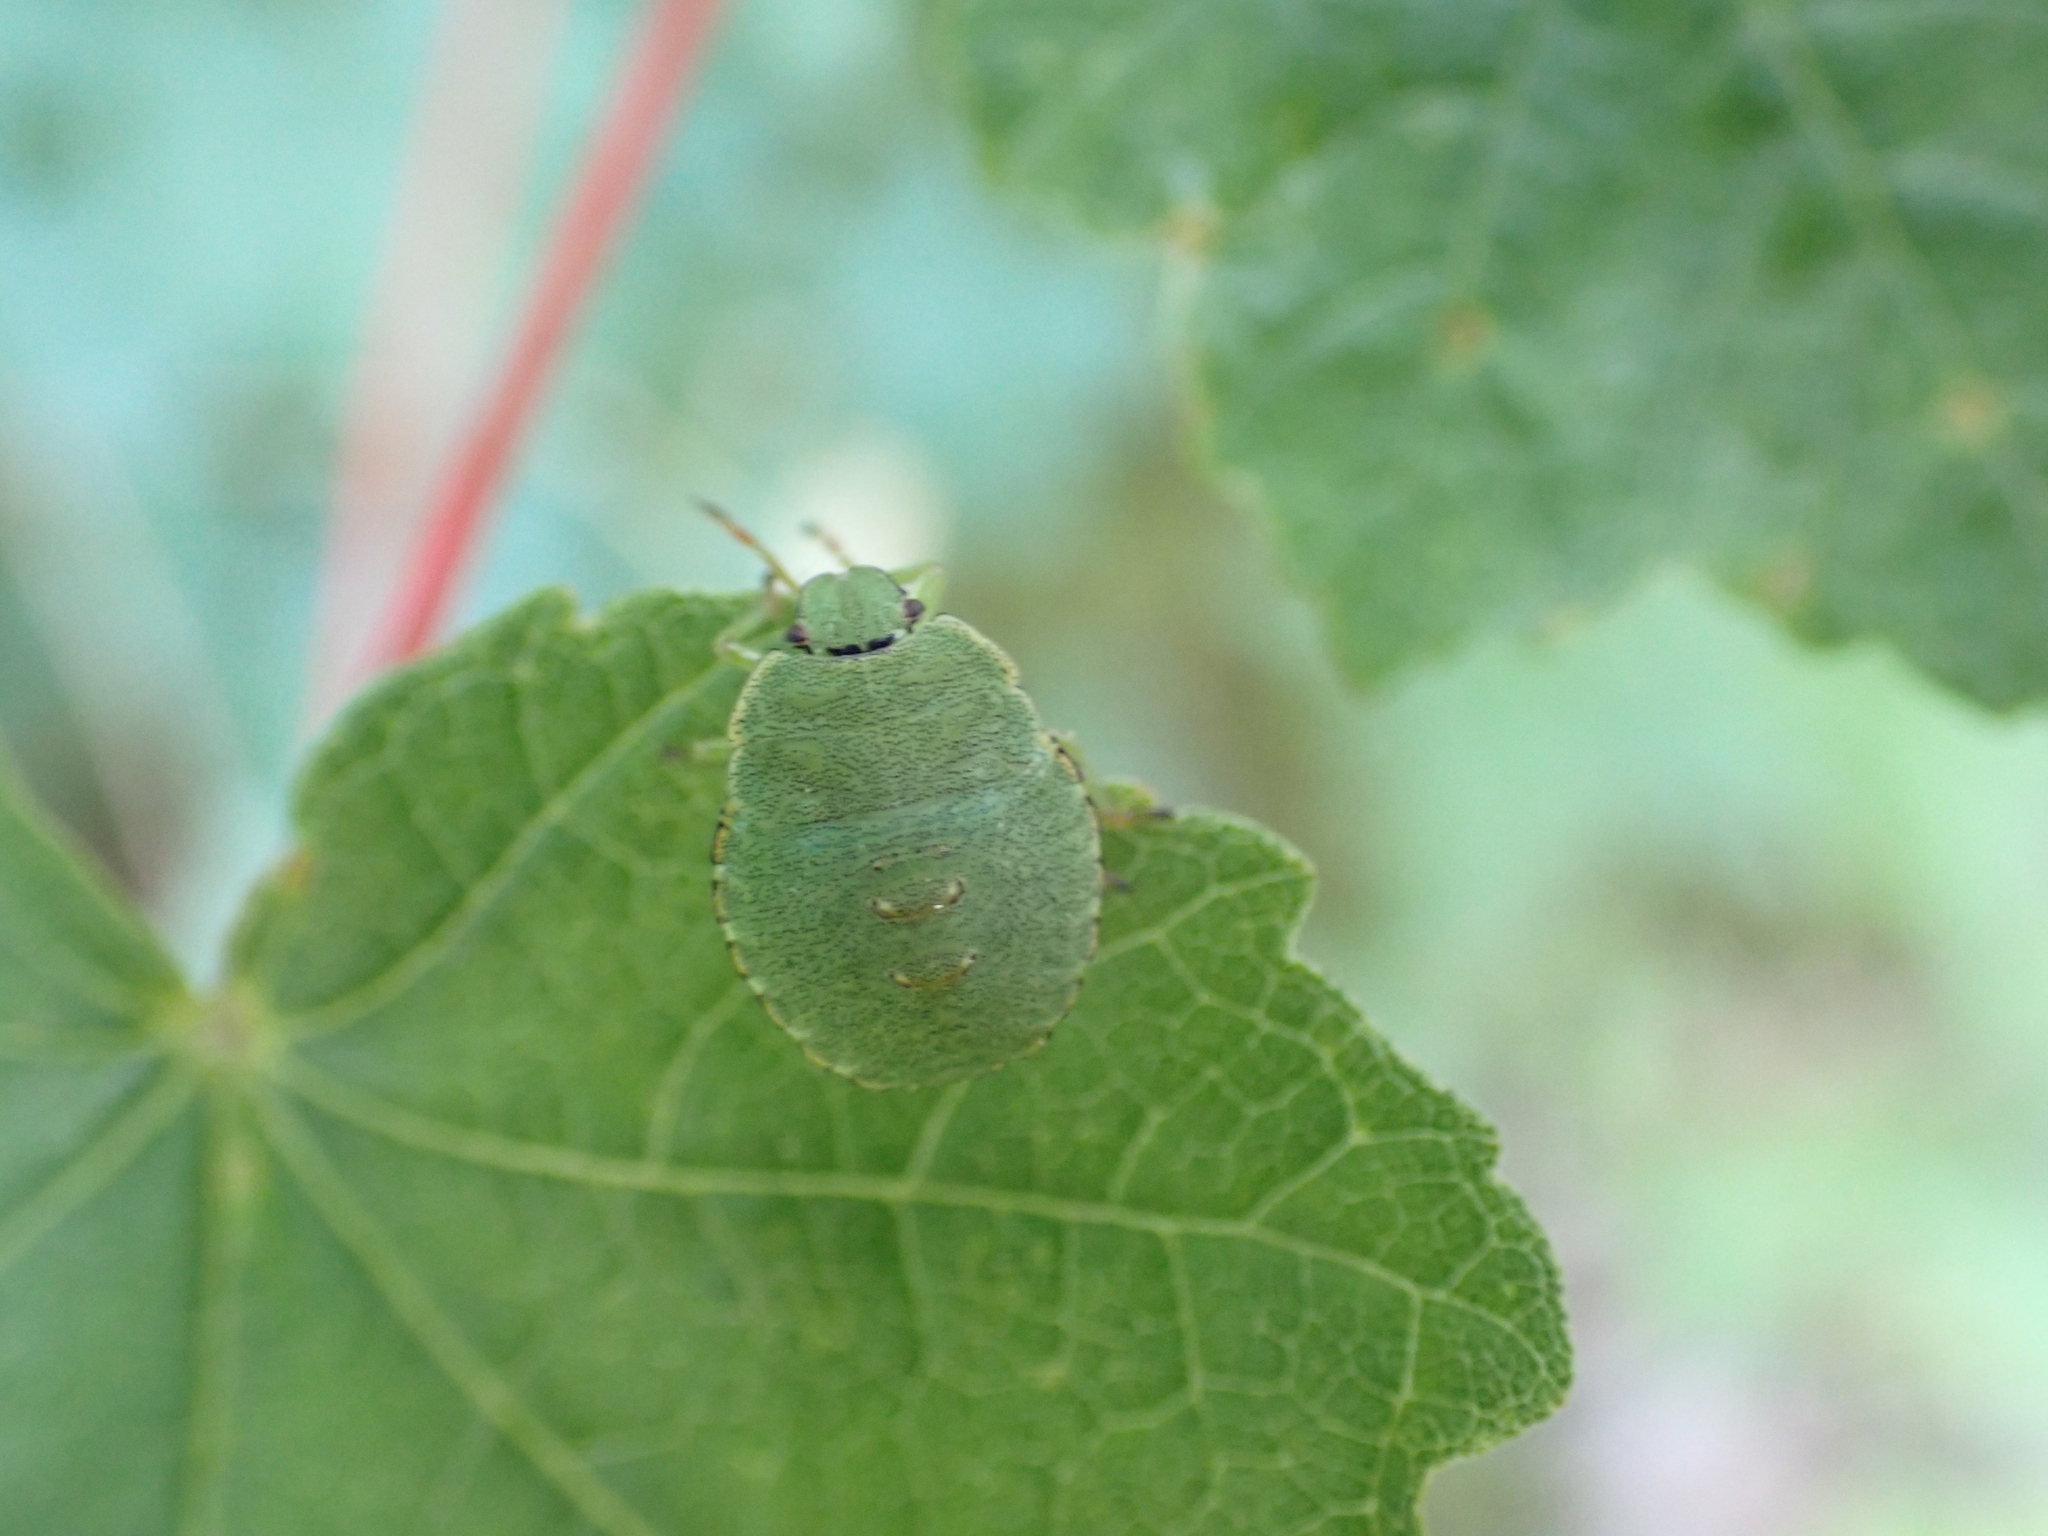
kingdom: Animalia
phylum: Arthropoda
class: Insecta
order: Hemiptera
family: Pentatomidae
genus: Palomena
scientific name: Palomena prasina
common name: Green shieldbug
